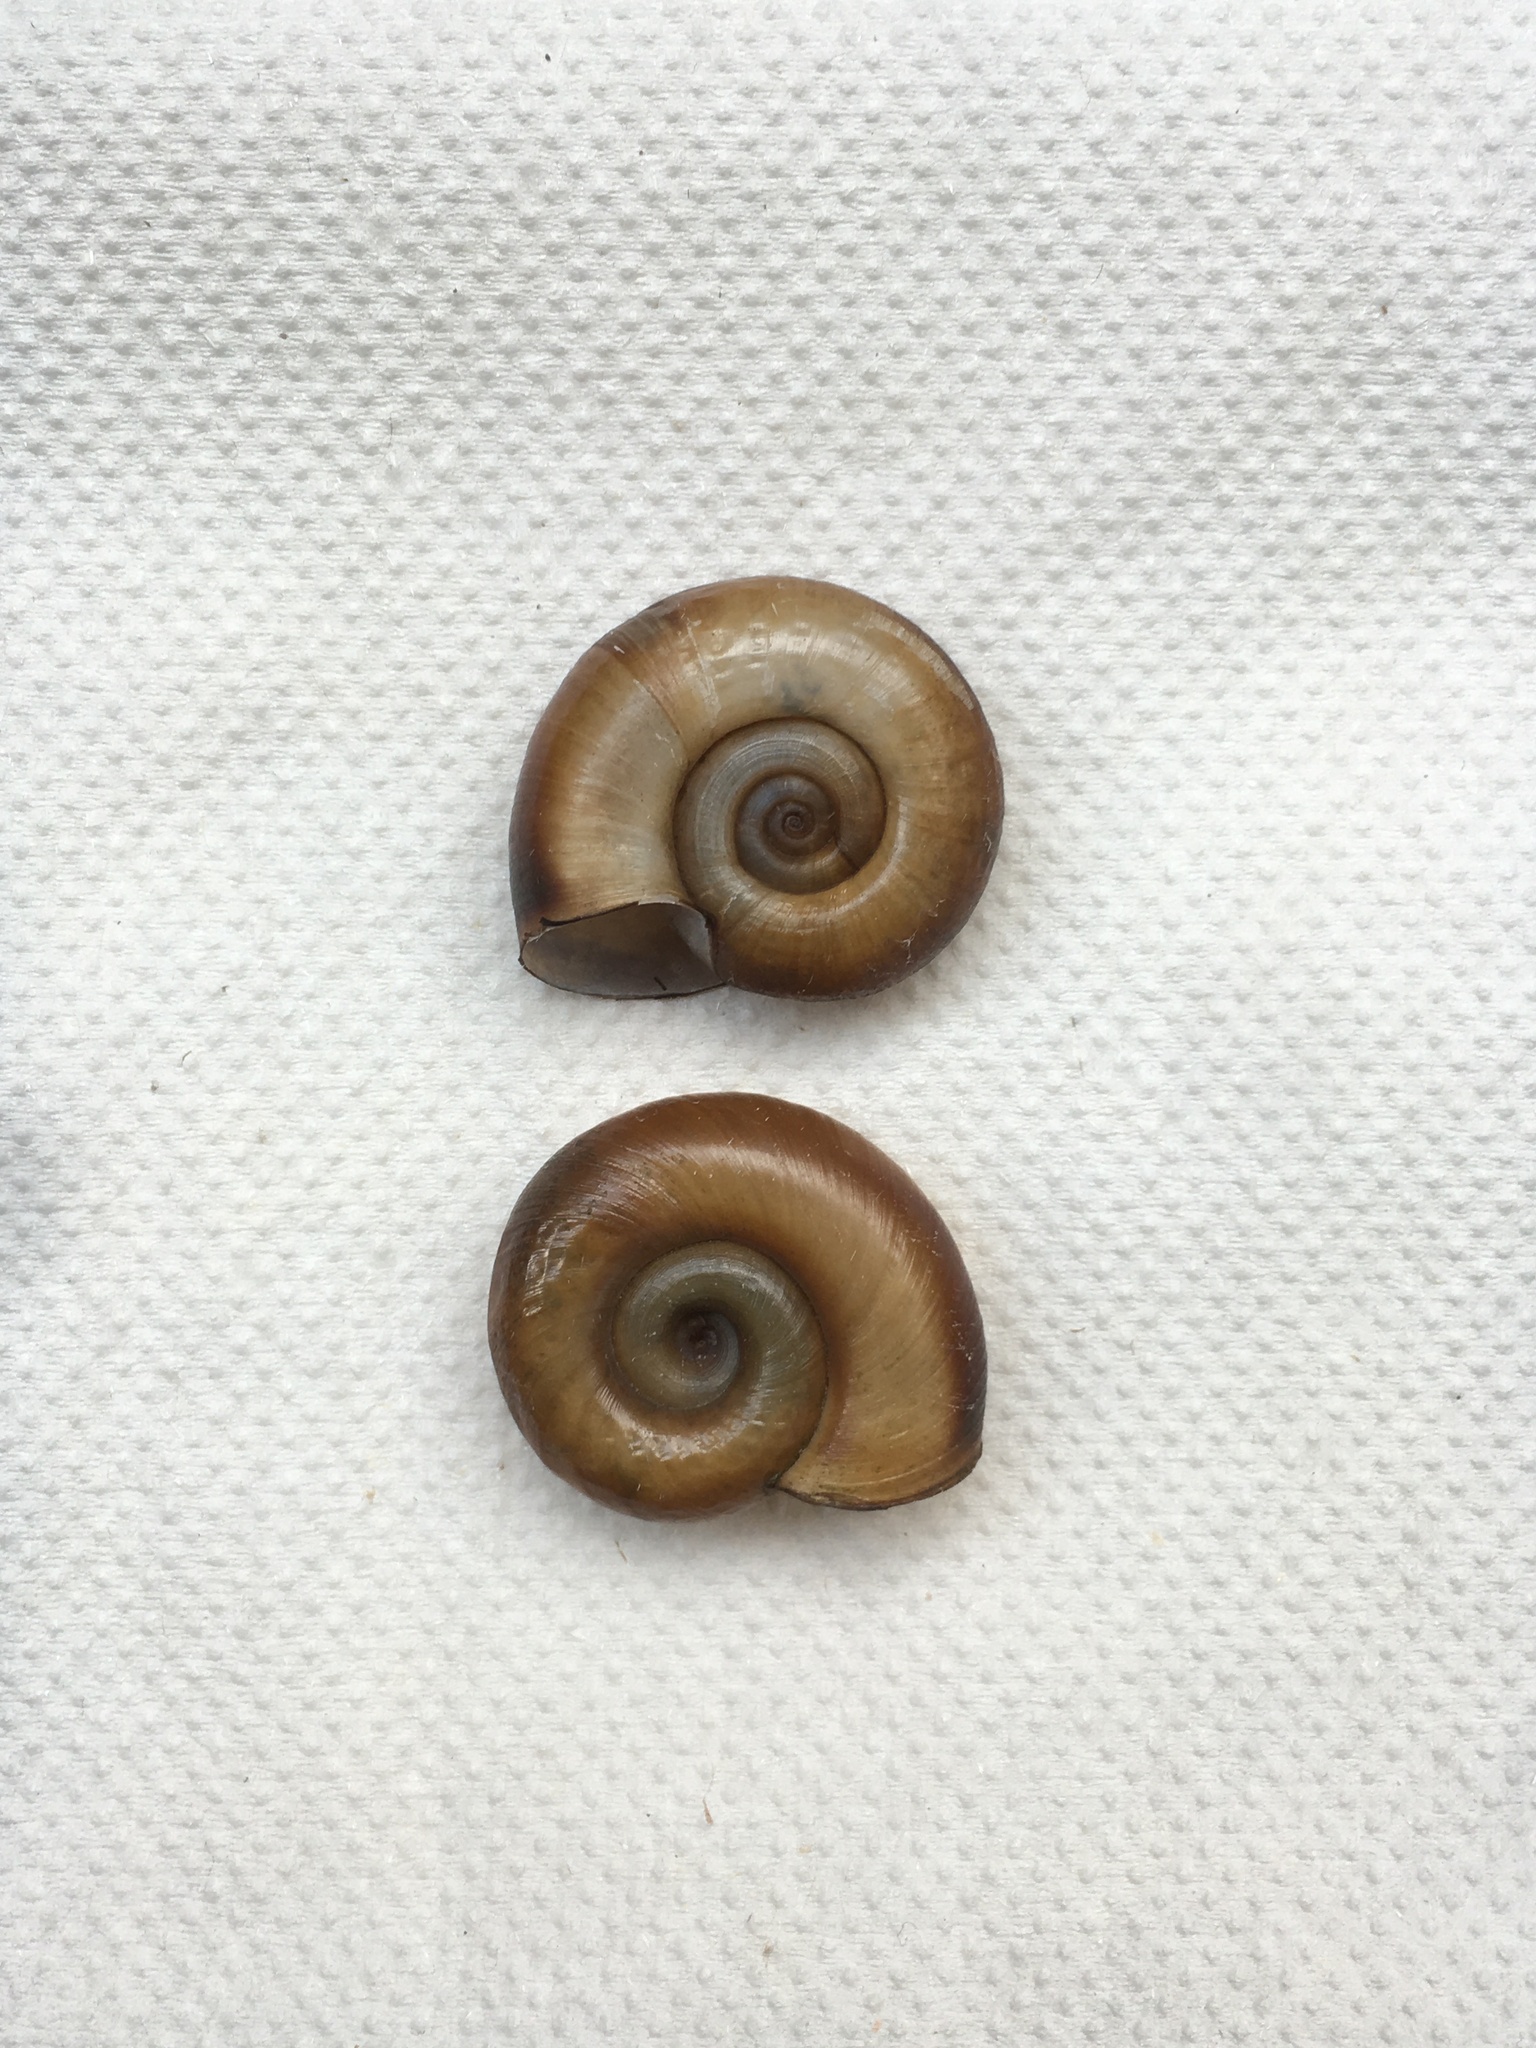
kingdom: Animalia
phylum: Mollusca
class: Gastropoda
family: Planorbidae
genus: Planorbarius
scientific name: Planorbarius corneus
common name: Great ramshorn
